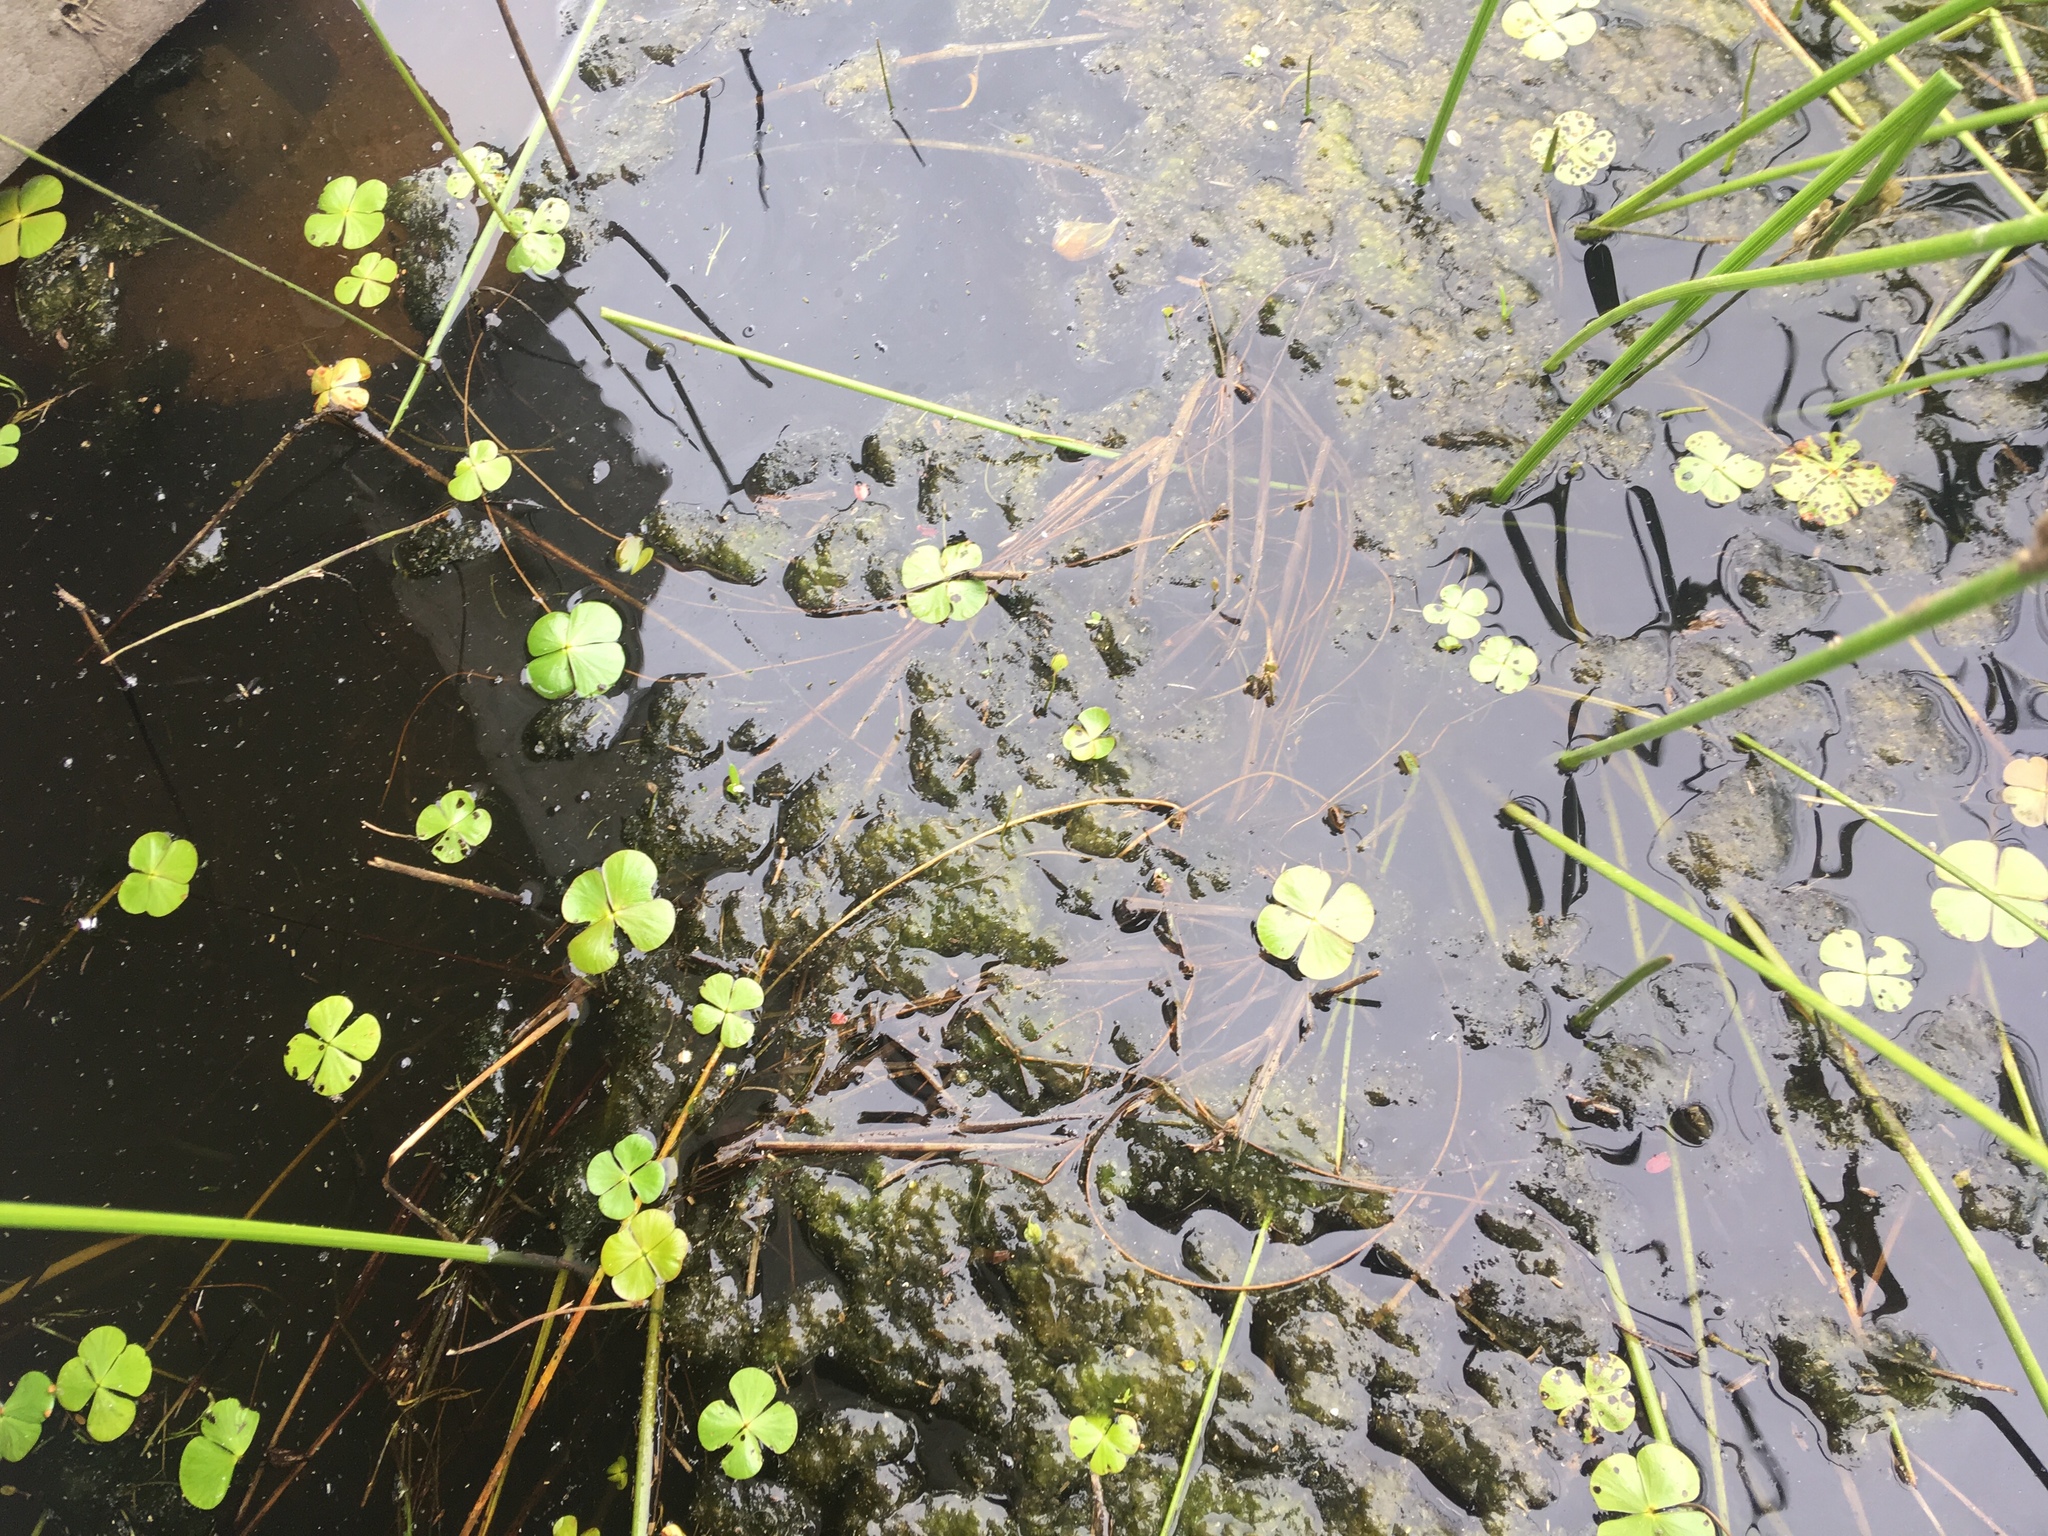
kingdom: Plantae
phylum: Tracheophyta
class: Polypodiopsida
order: Salviniales
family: Marsileaceae
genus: Marsilea
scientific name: Marsilea vestita
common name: Hooked-pepperwort
